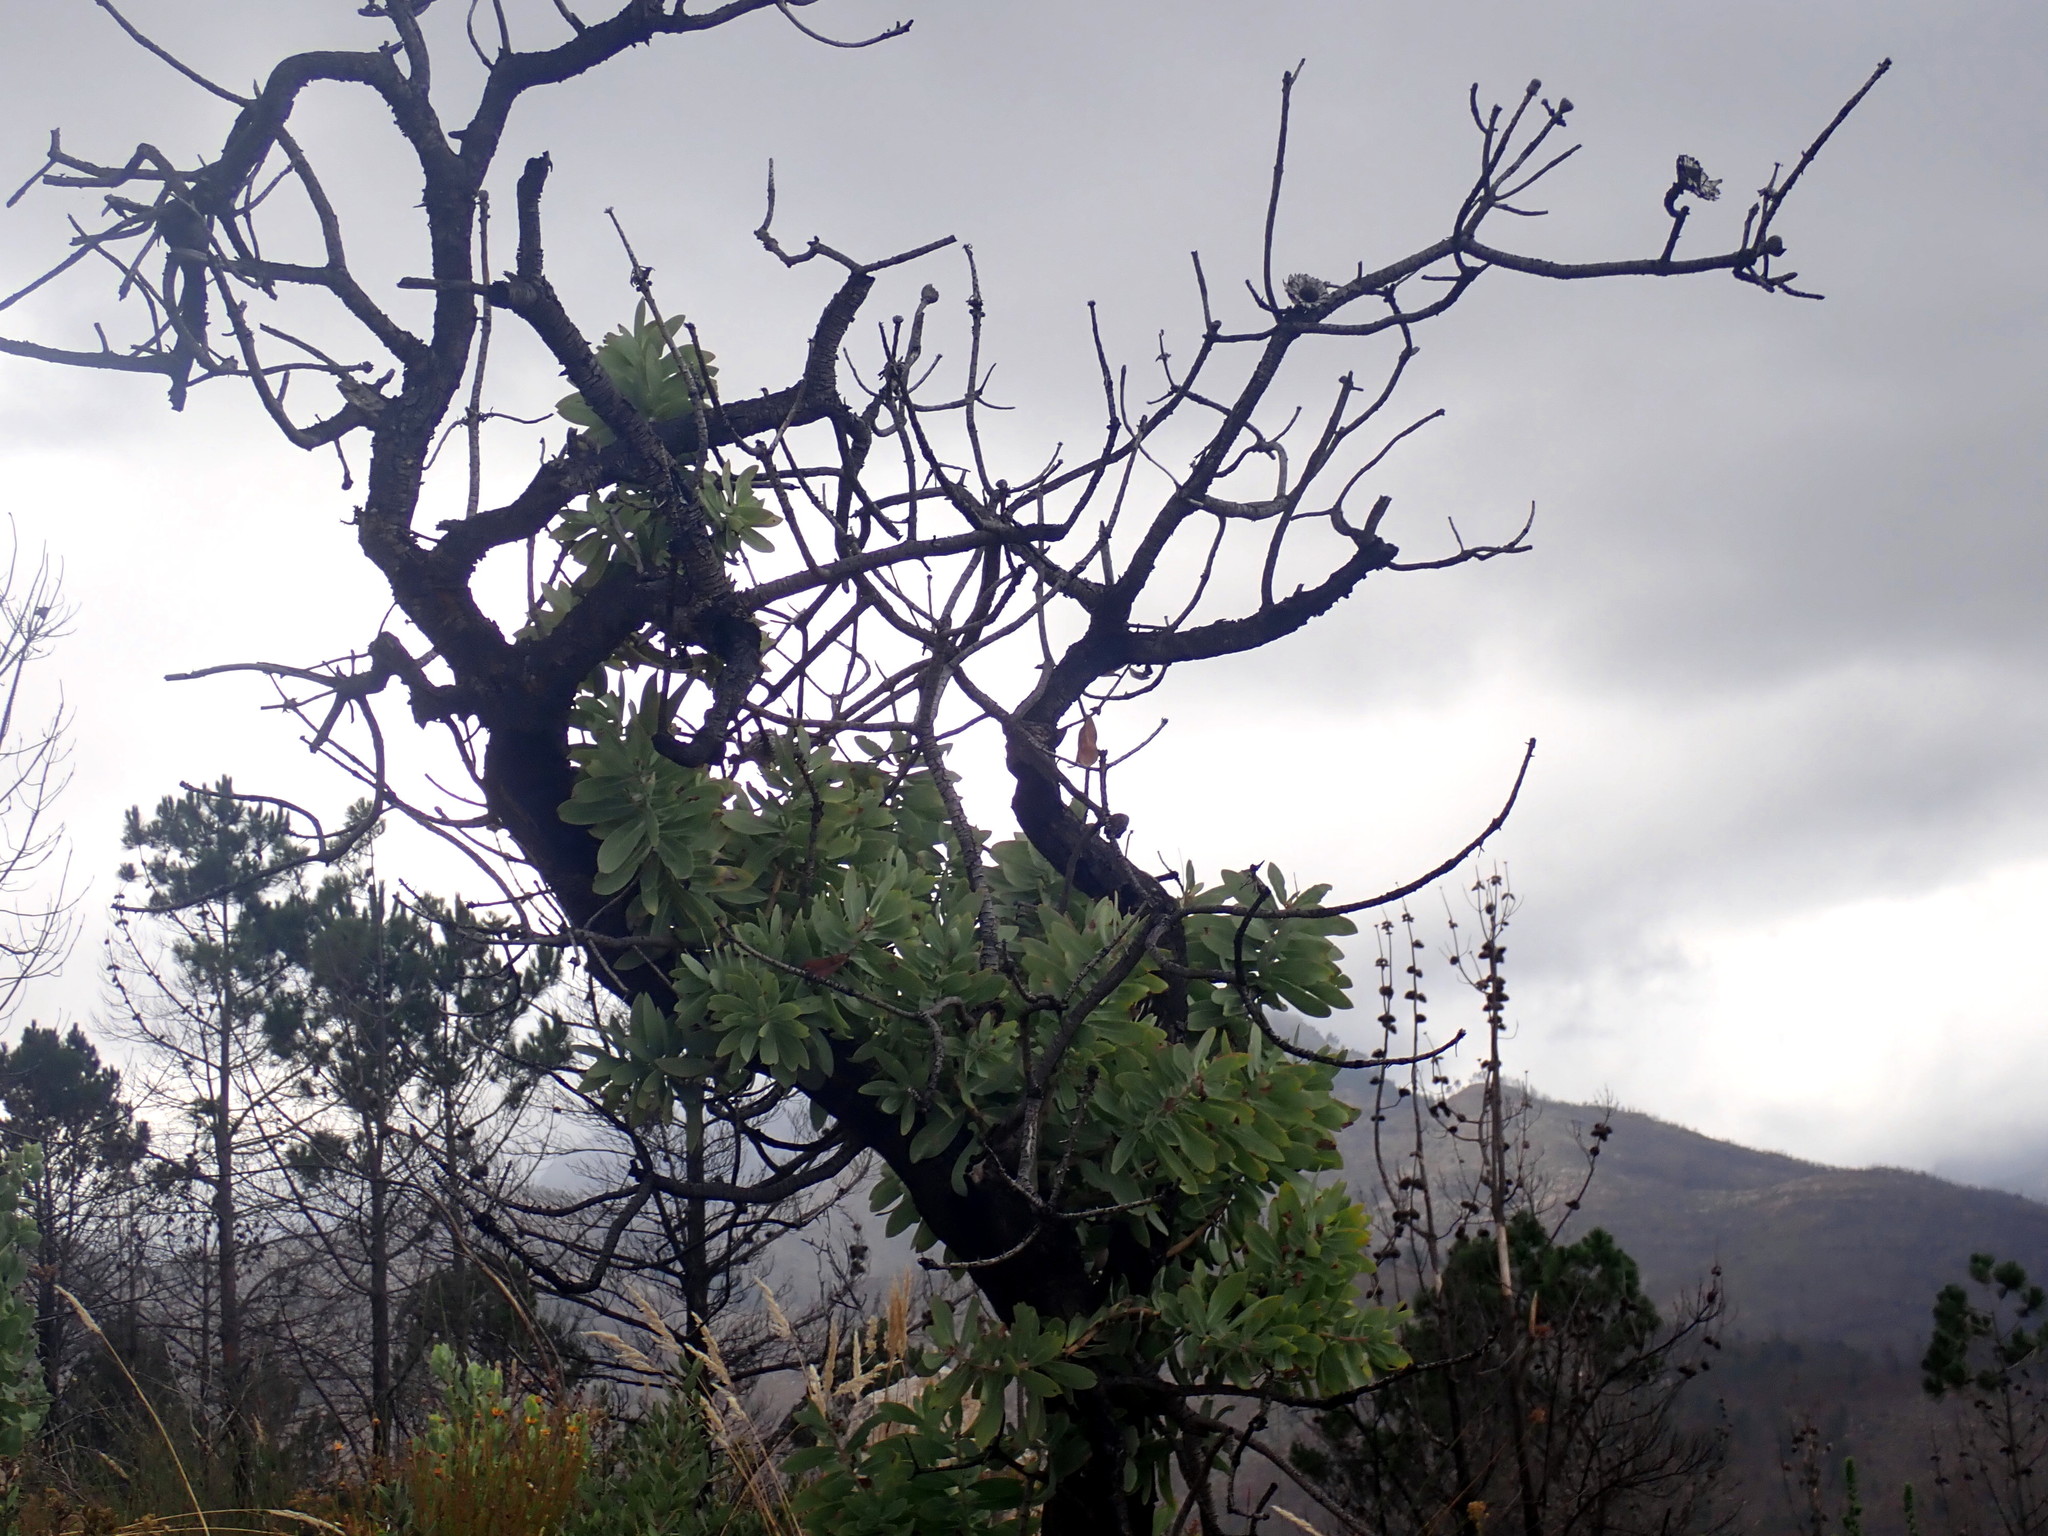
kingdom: Plantae
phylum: Tracheophyta
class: Magnoliopsida
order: Proteales
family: Proteaceae
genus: Protea
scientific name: Protea nitida
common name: Tree protea
